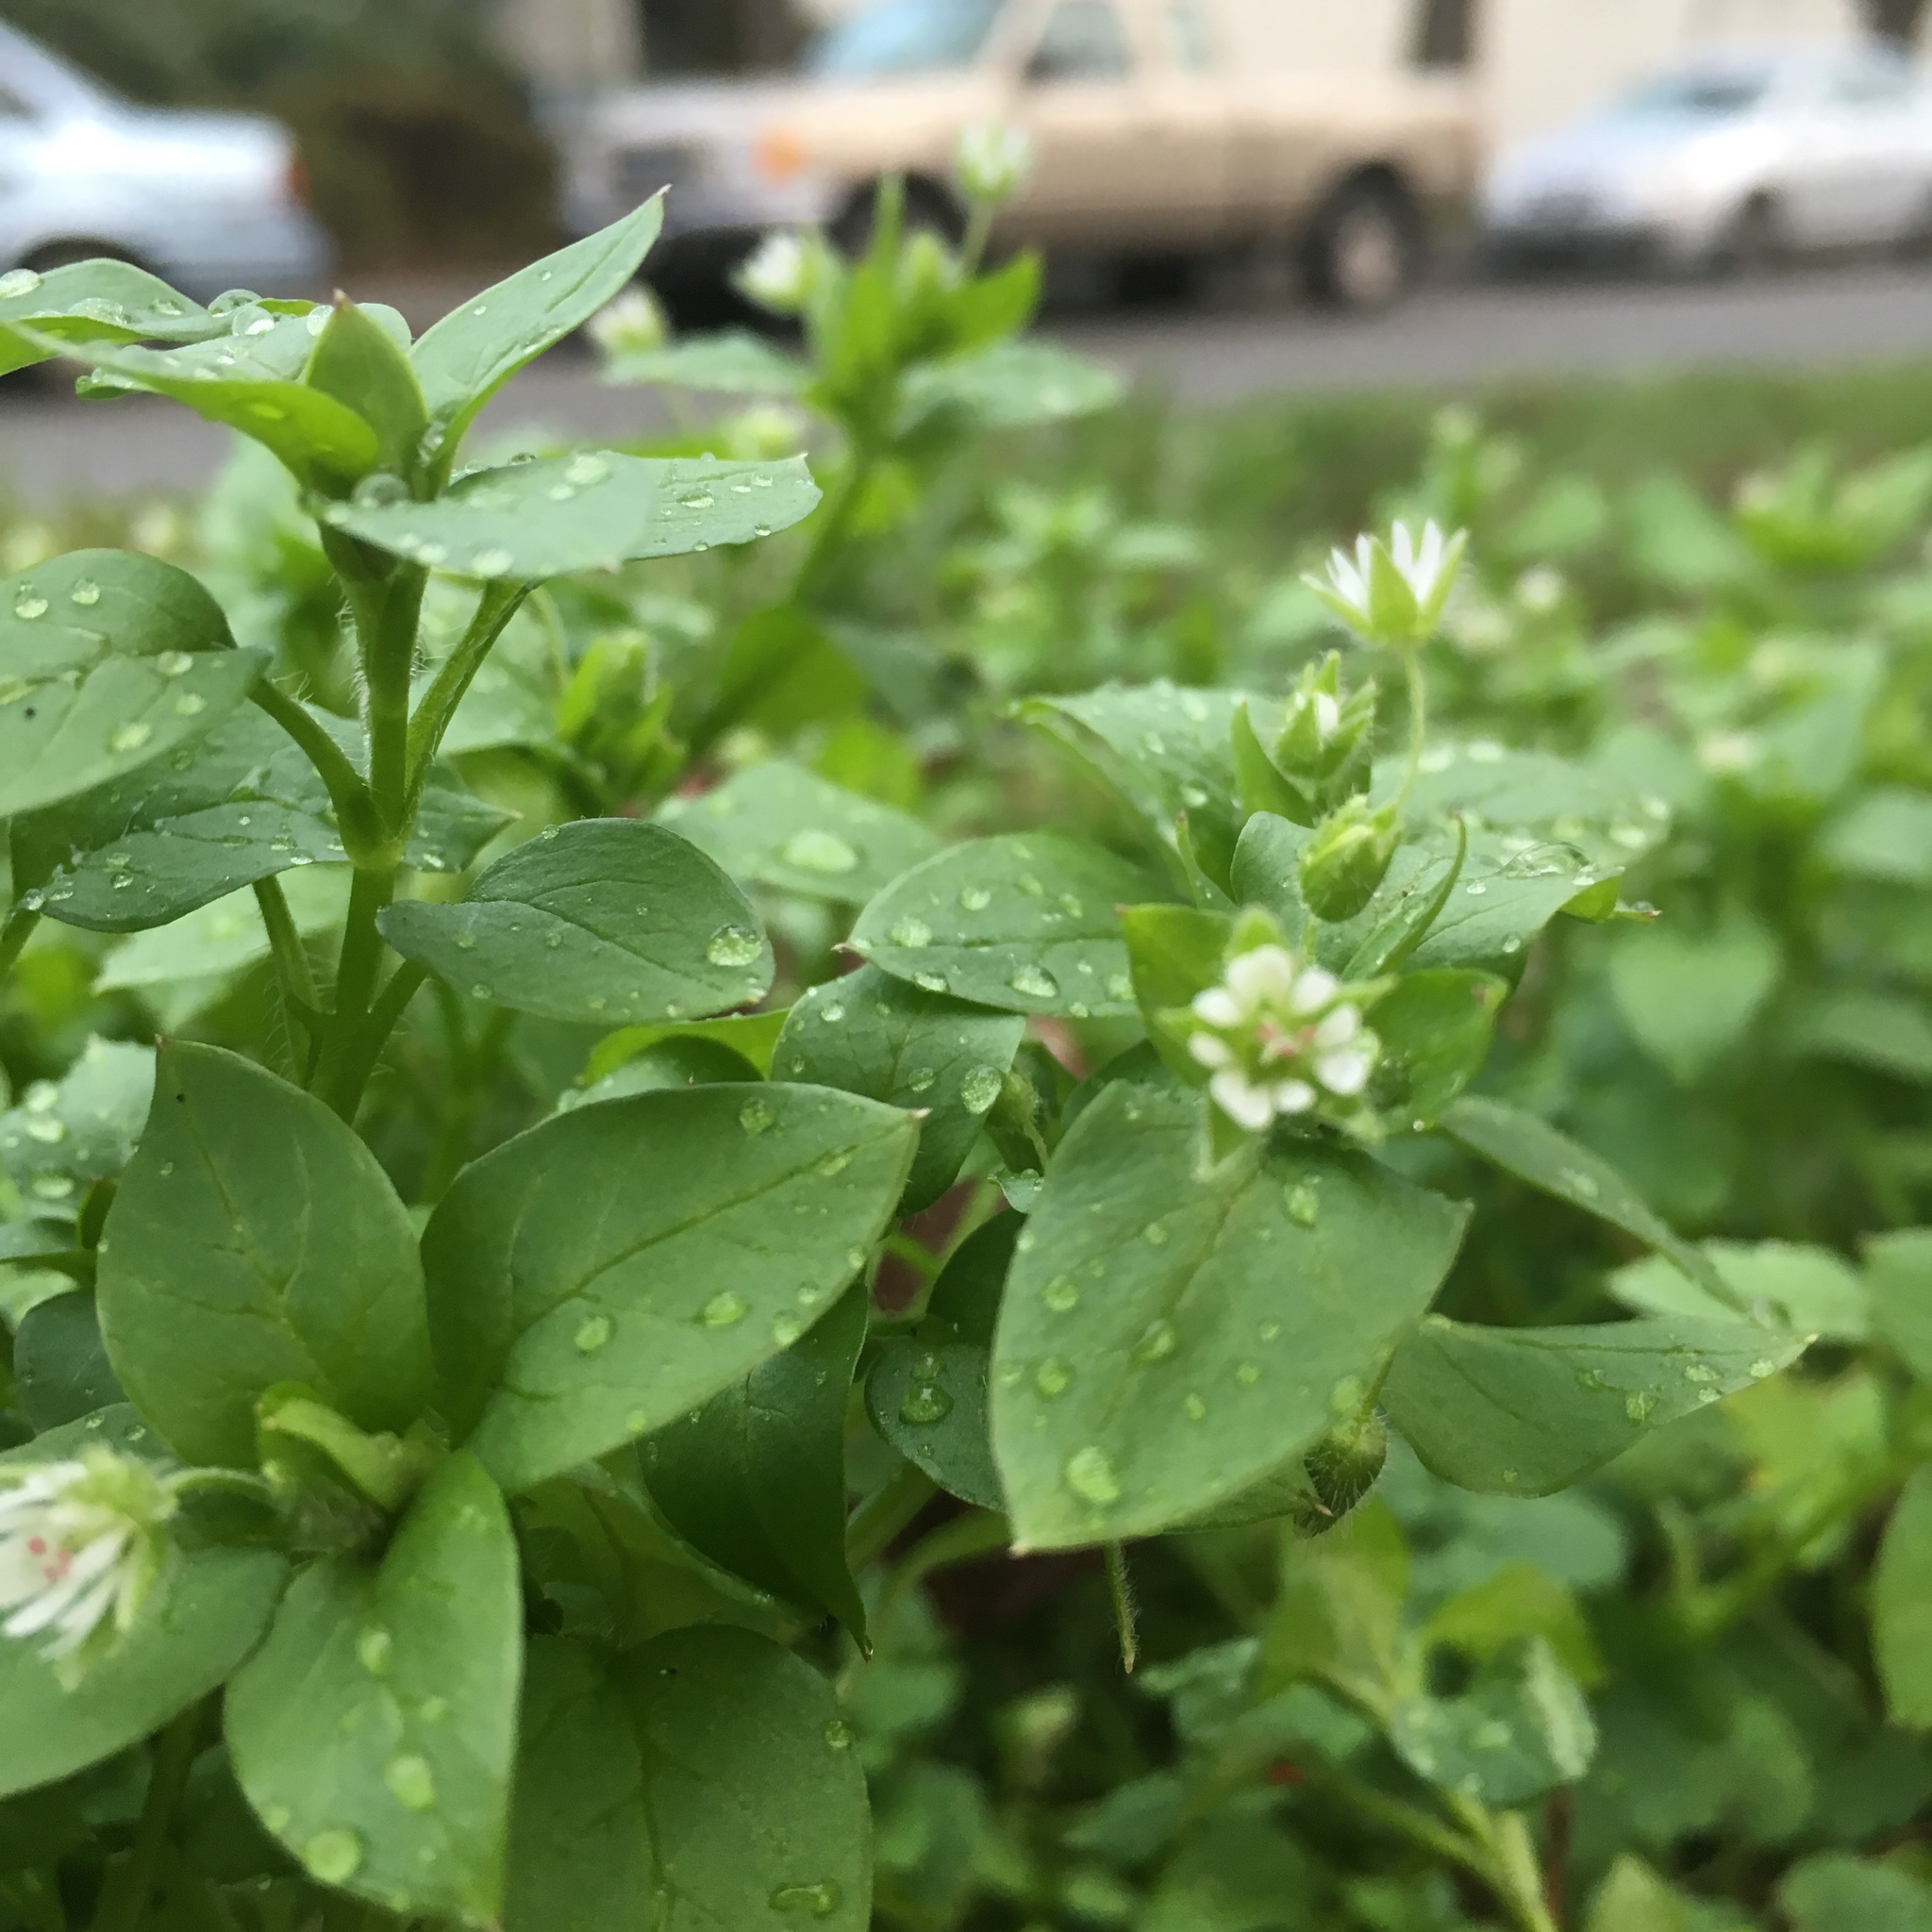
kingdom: Plantae
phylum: Tracheophyta
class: Magnoliopsida
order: Caryophyllales
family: Caryophyllaceae
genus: Stellaria
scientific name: Stellaria media
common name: Common chickweed
